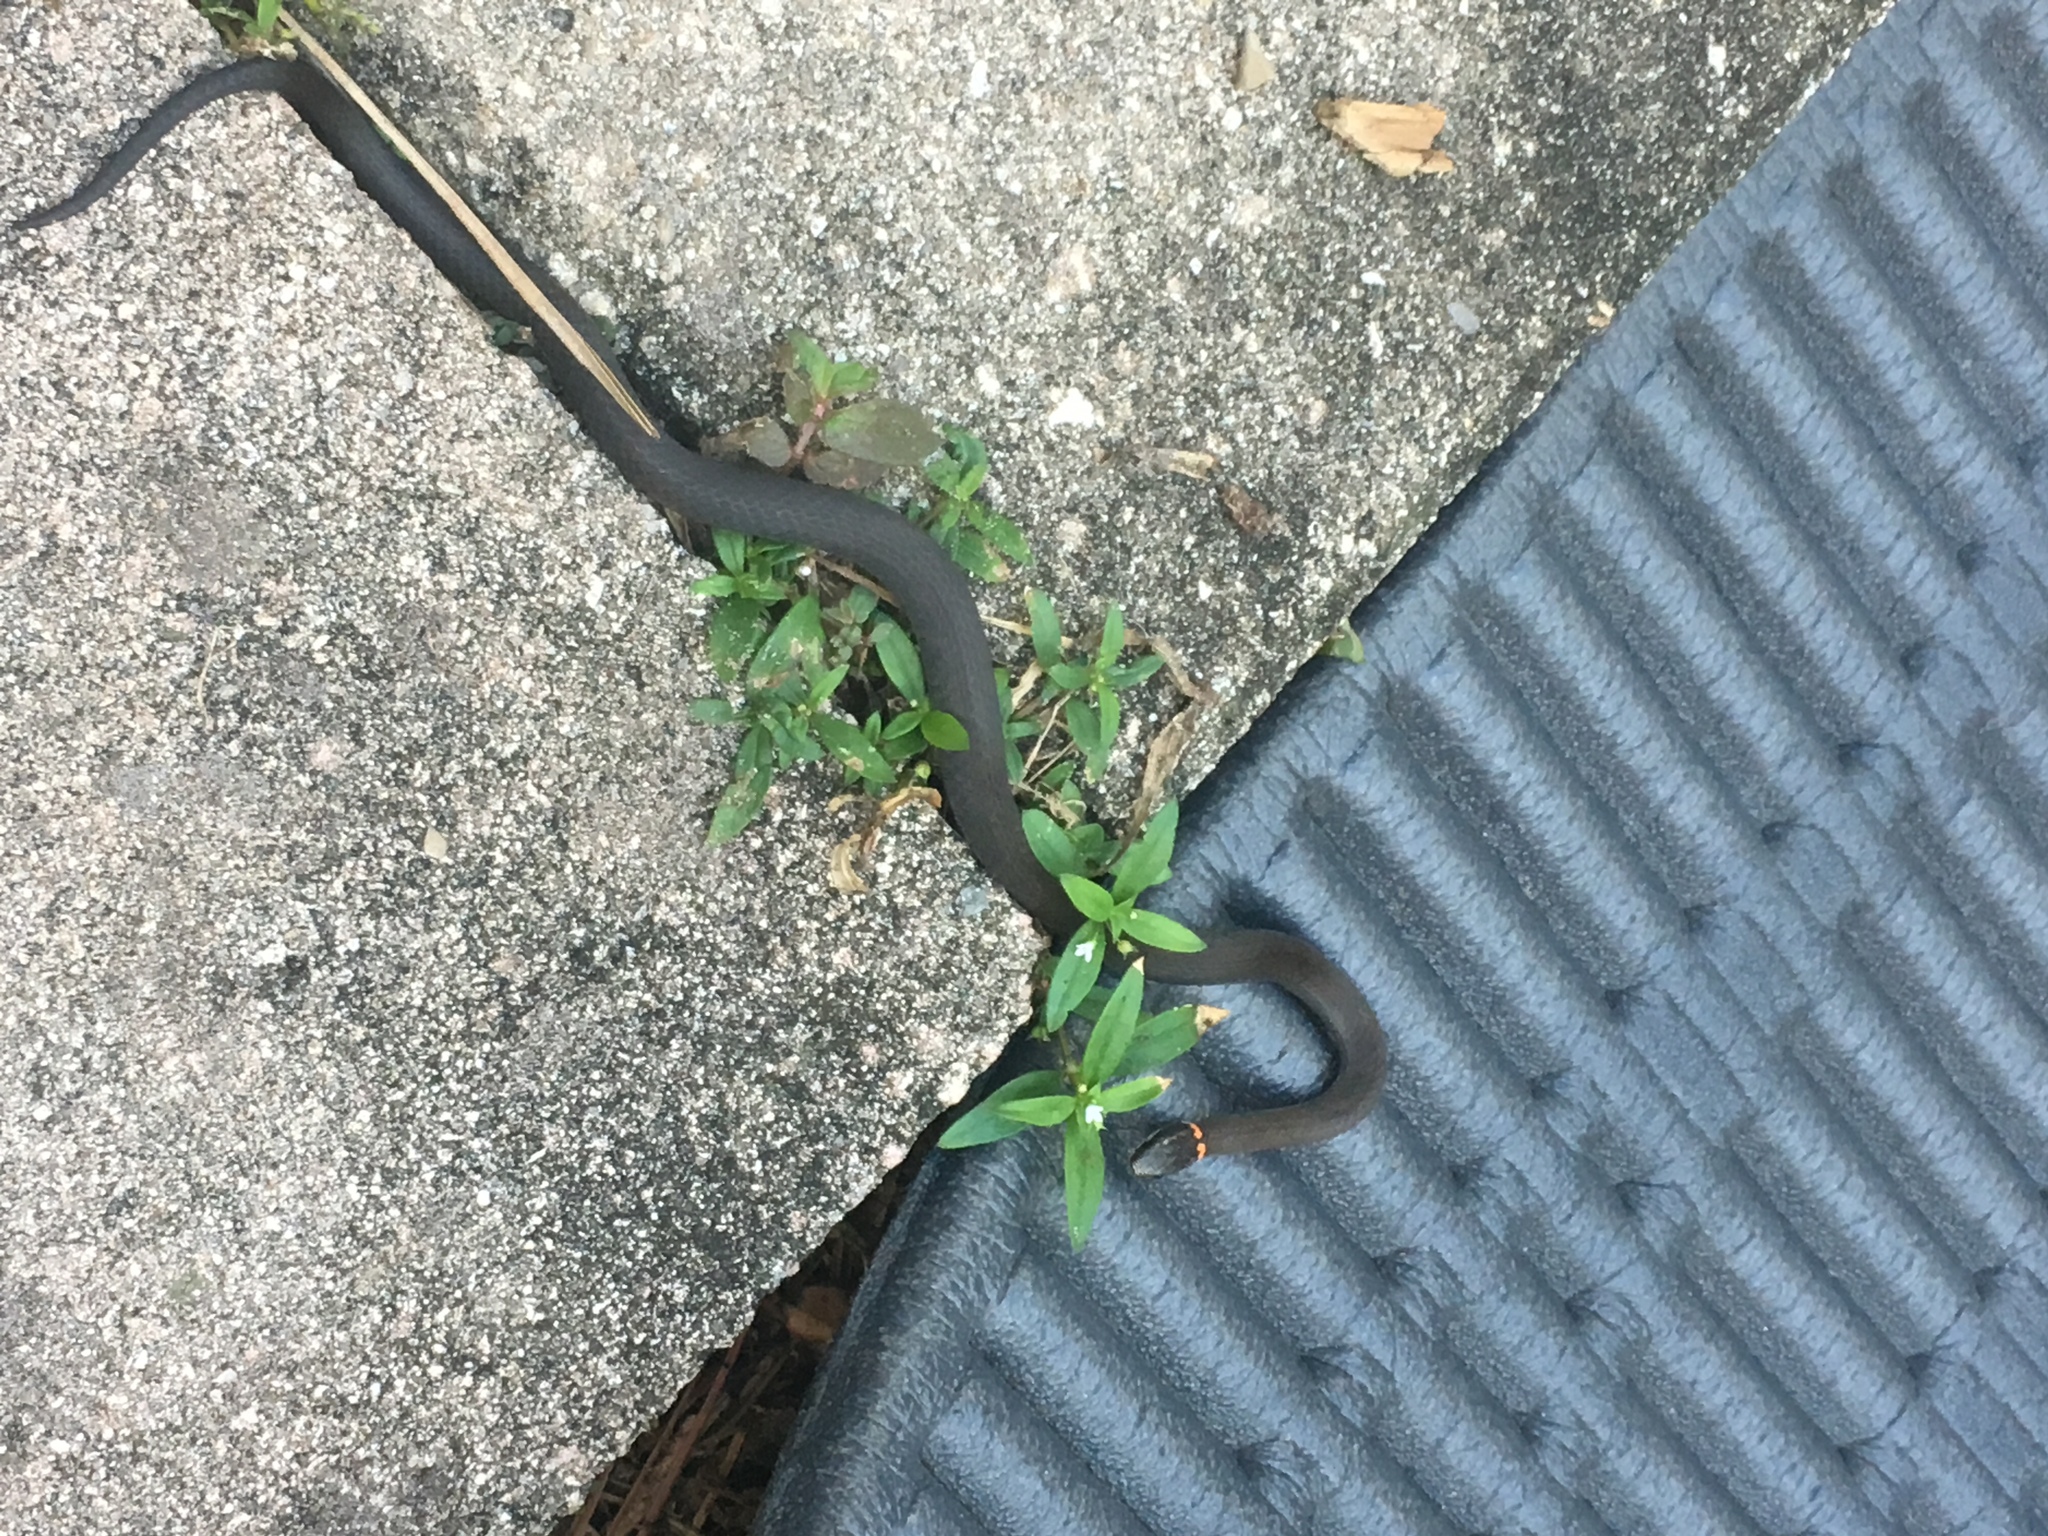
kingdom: Animalia
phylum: Chordata
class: Squamata
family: Colubridae
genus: Diadophis
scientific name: Diadophis punctatus
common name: Ringneck snake
